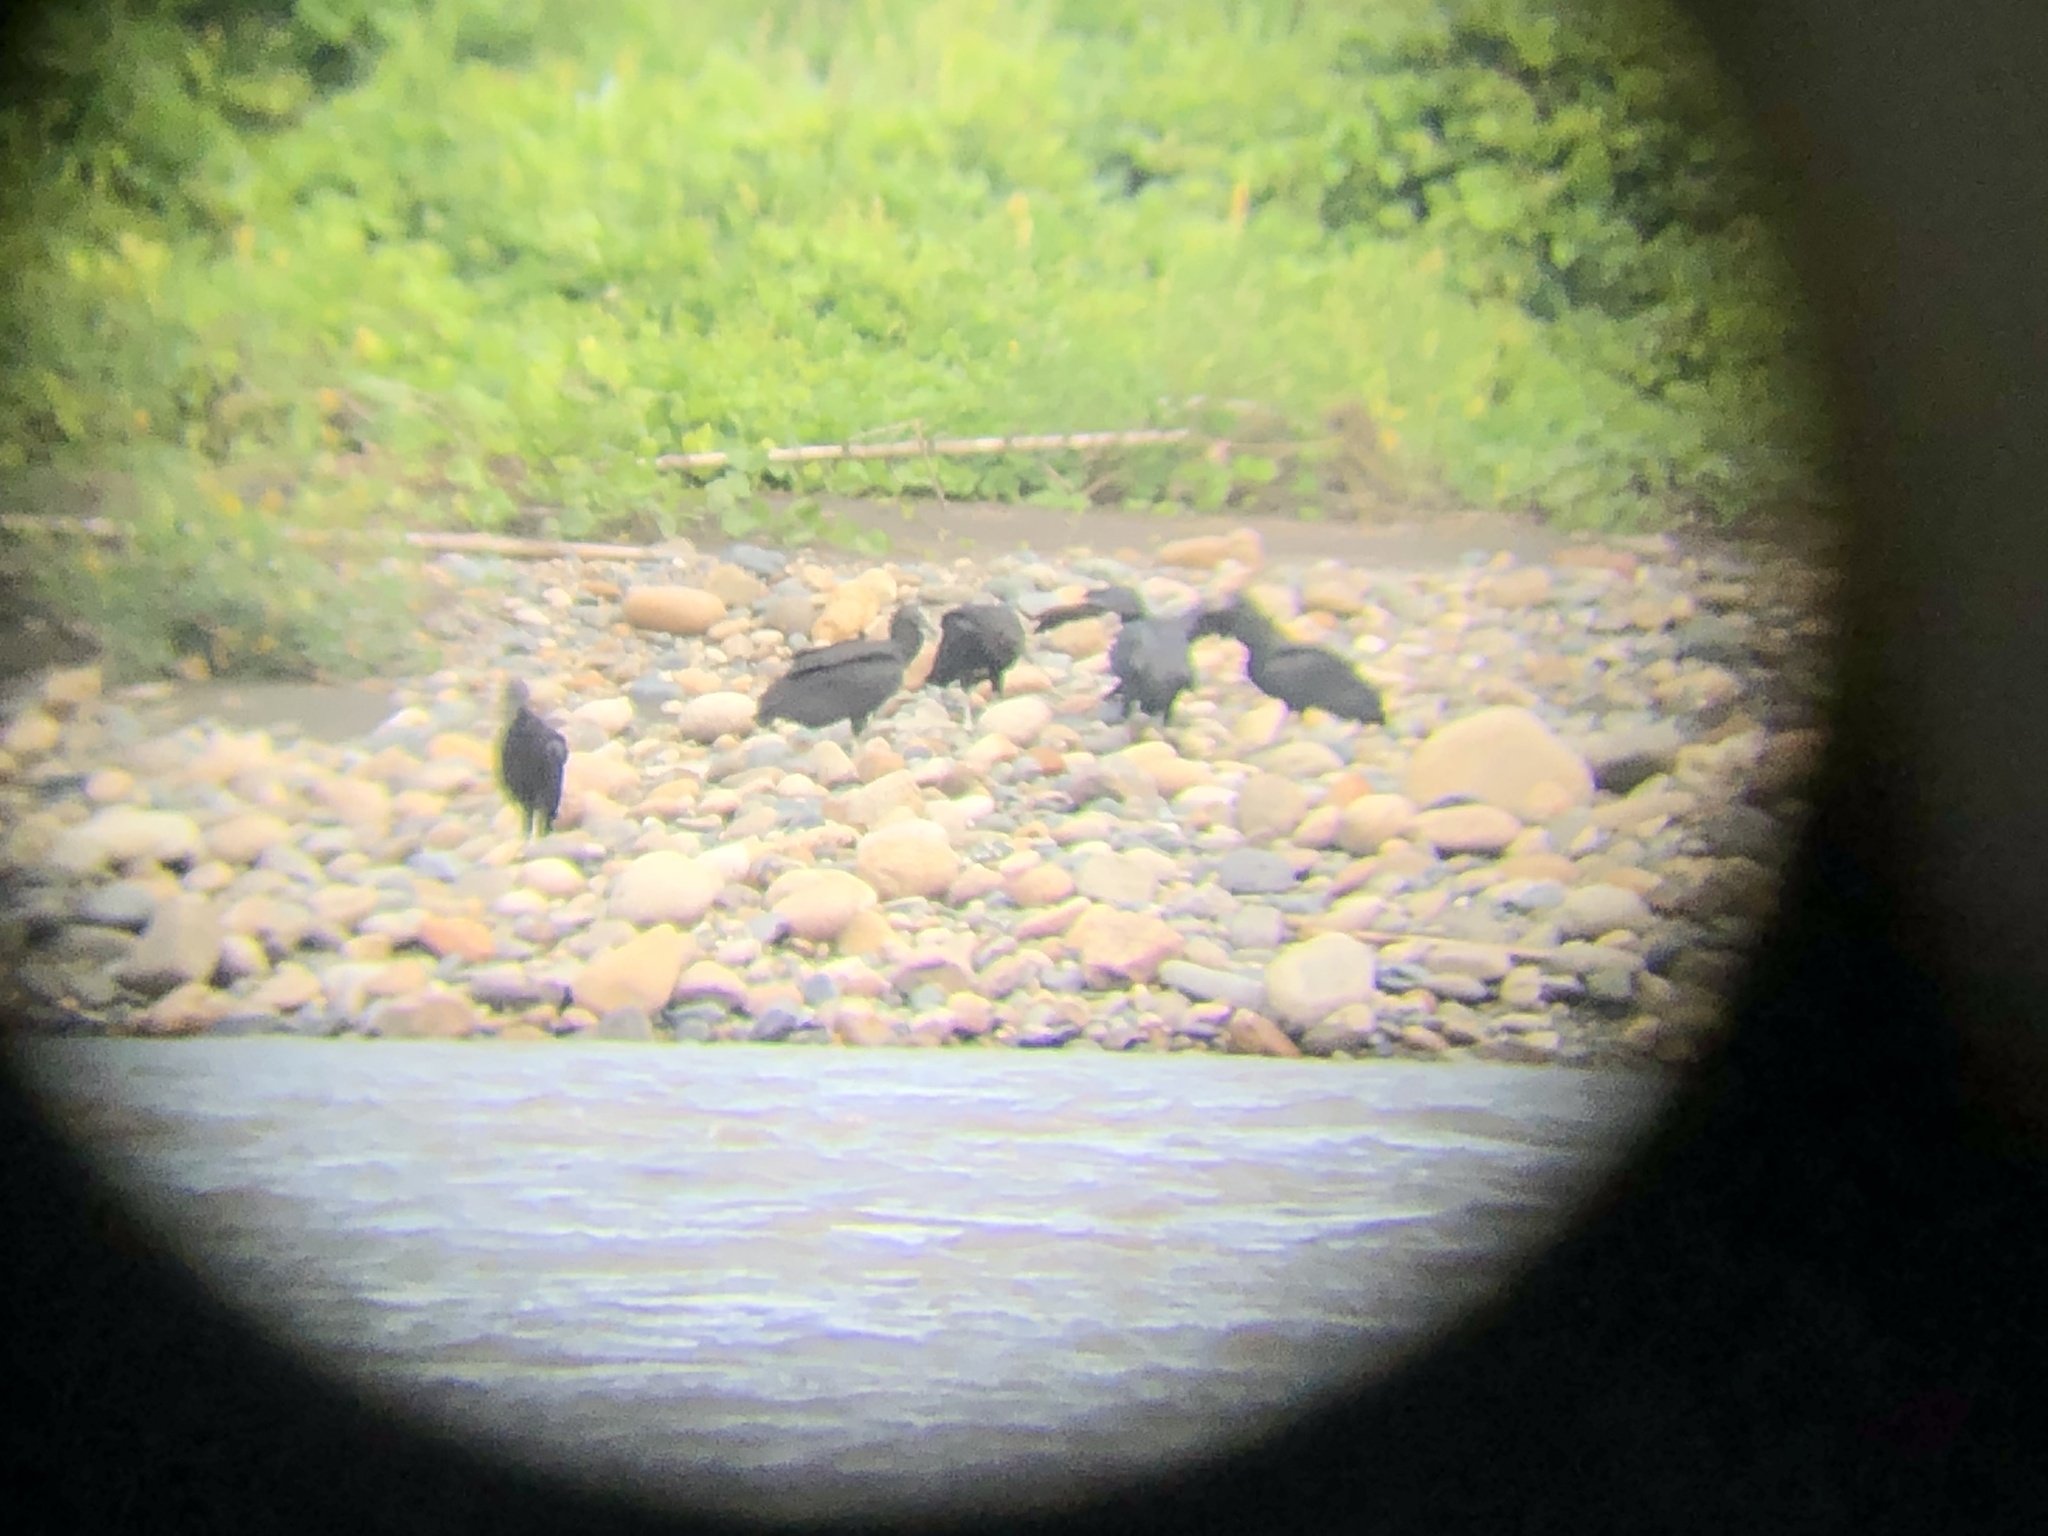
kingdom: Animalia
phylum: Chordata
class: Aves
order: Accipitriformes
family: Cathartidae
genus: Coragyps
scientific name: Coragyps atratus
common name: Black vulture
